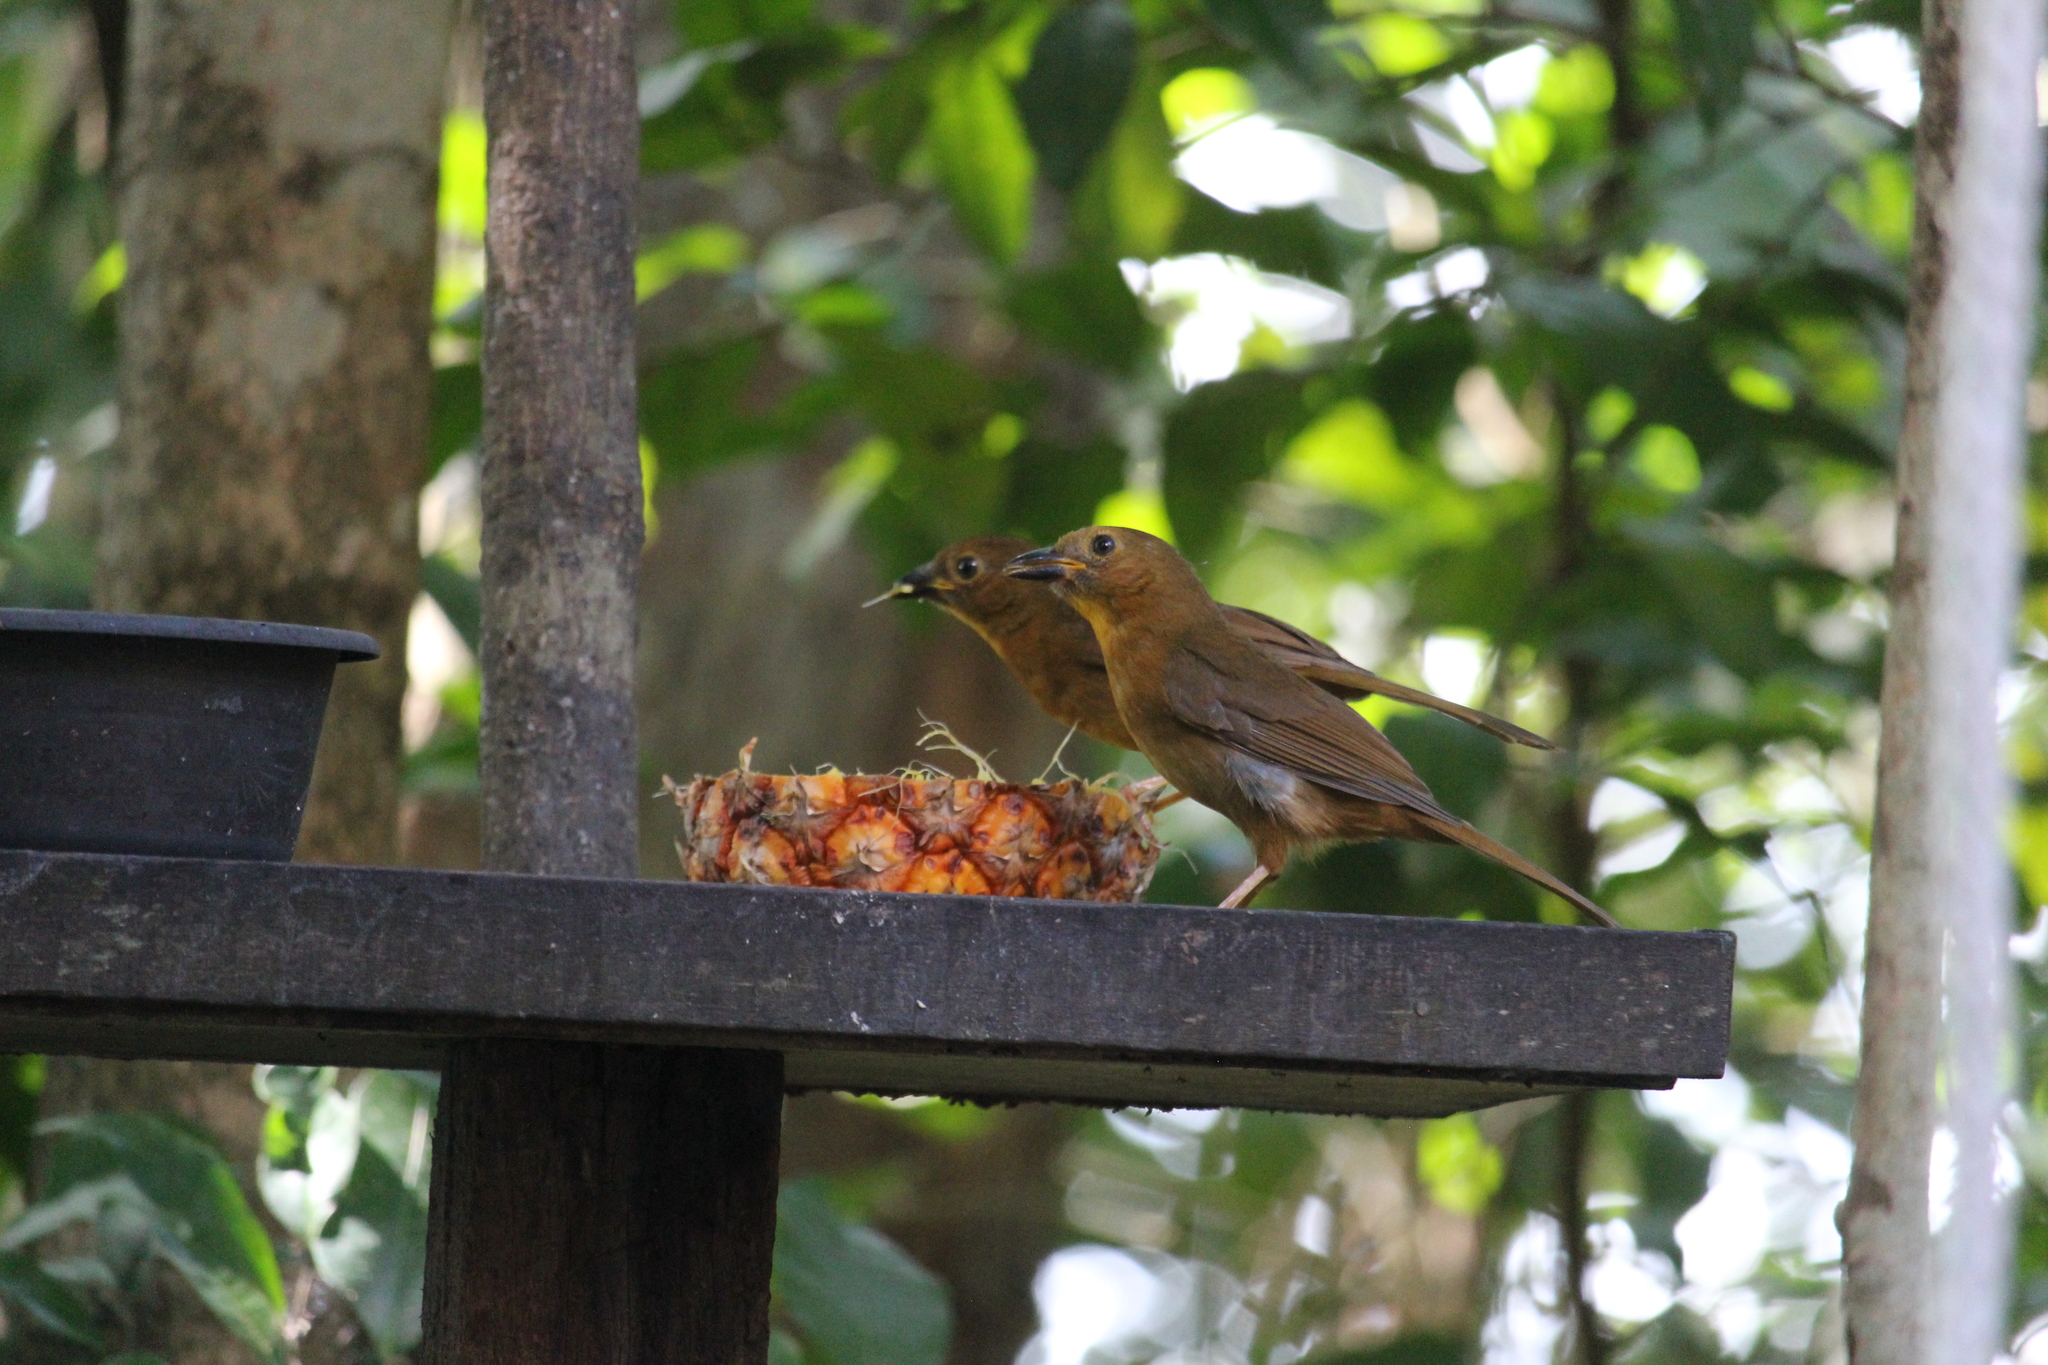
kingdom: Animalia
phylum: Chordata
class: Aves
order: Passeriformes
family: Cardinalidae
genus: Habia
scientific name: Habia fuscicauda
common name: Red-throated ant-tanager
